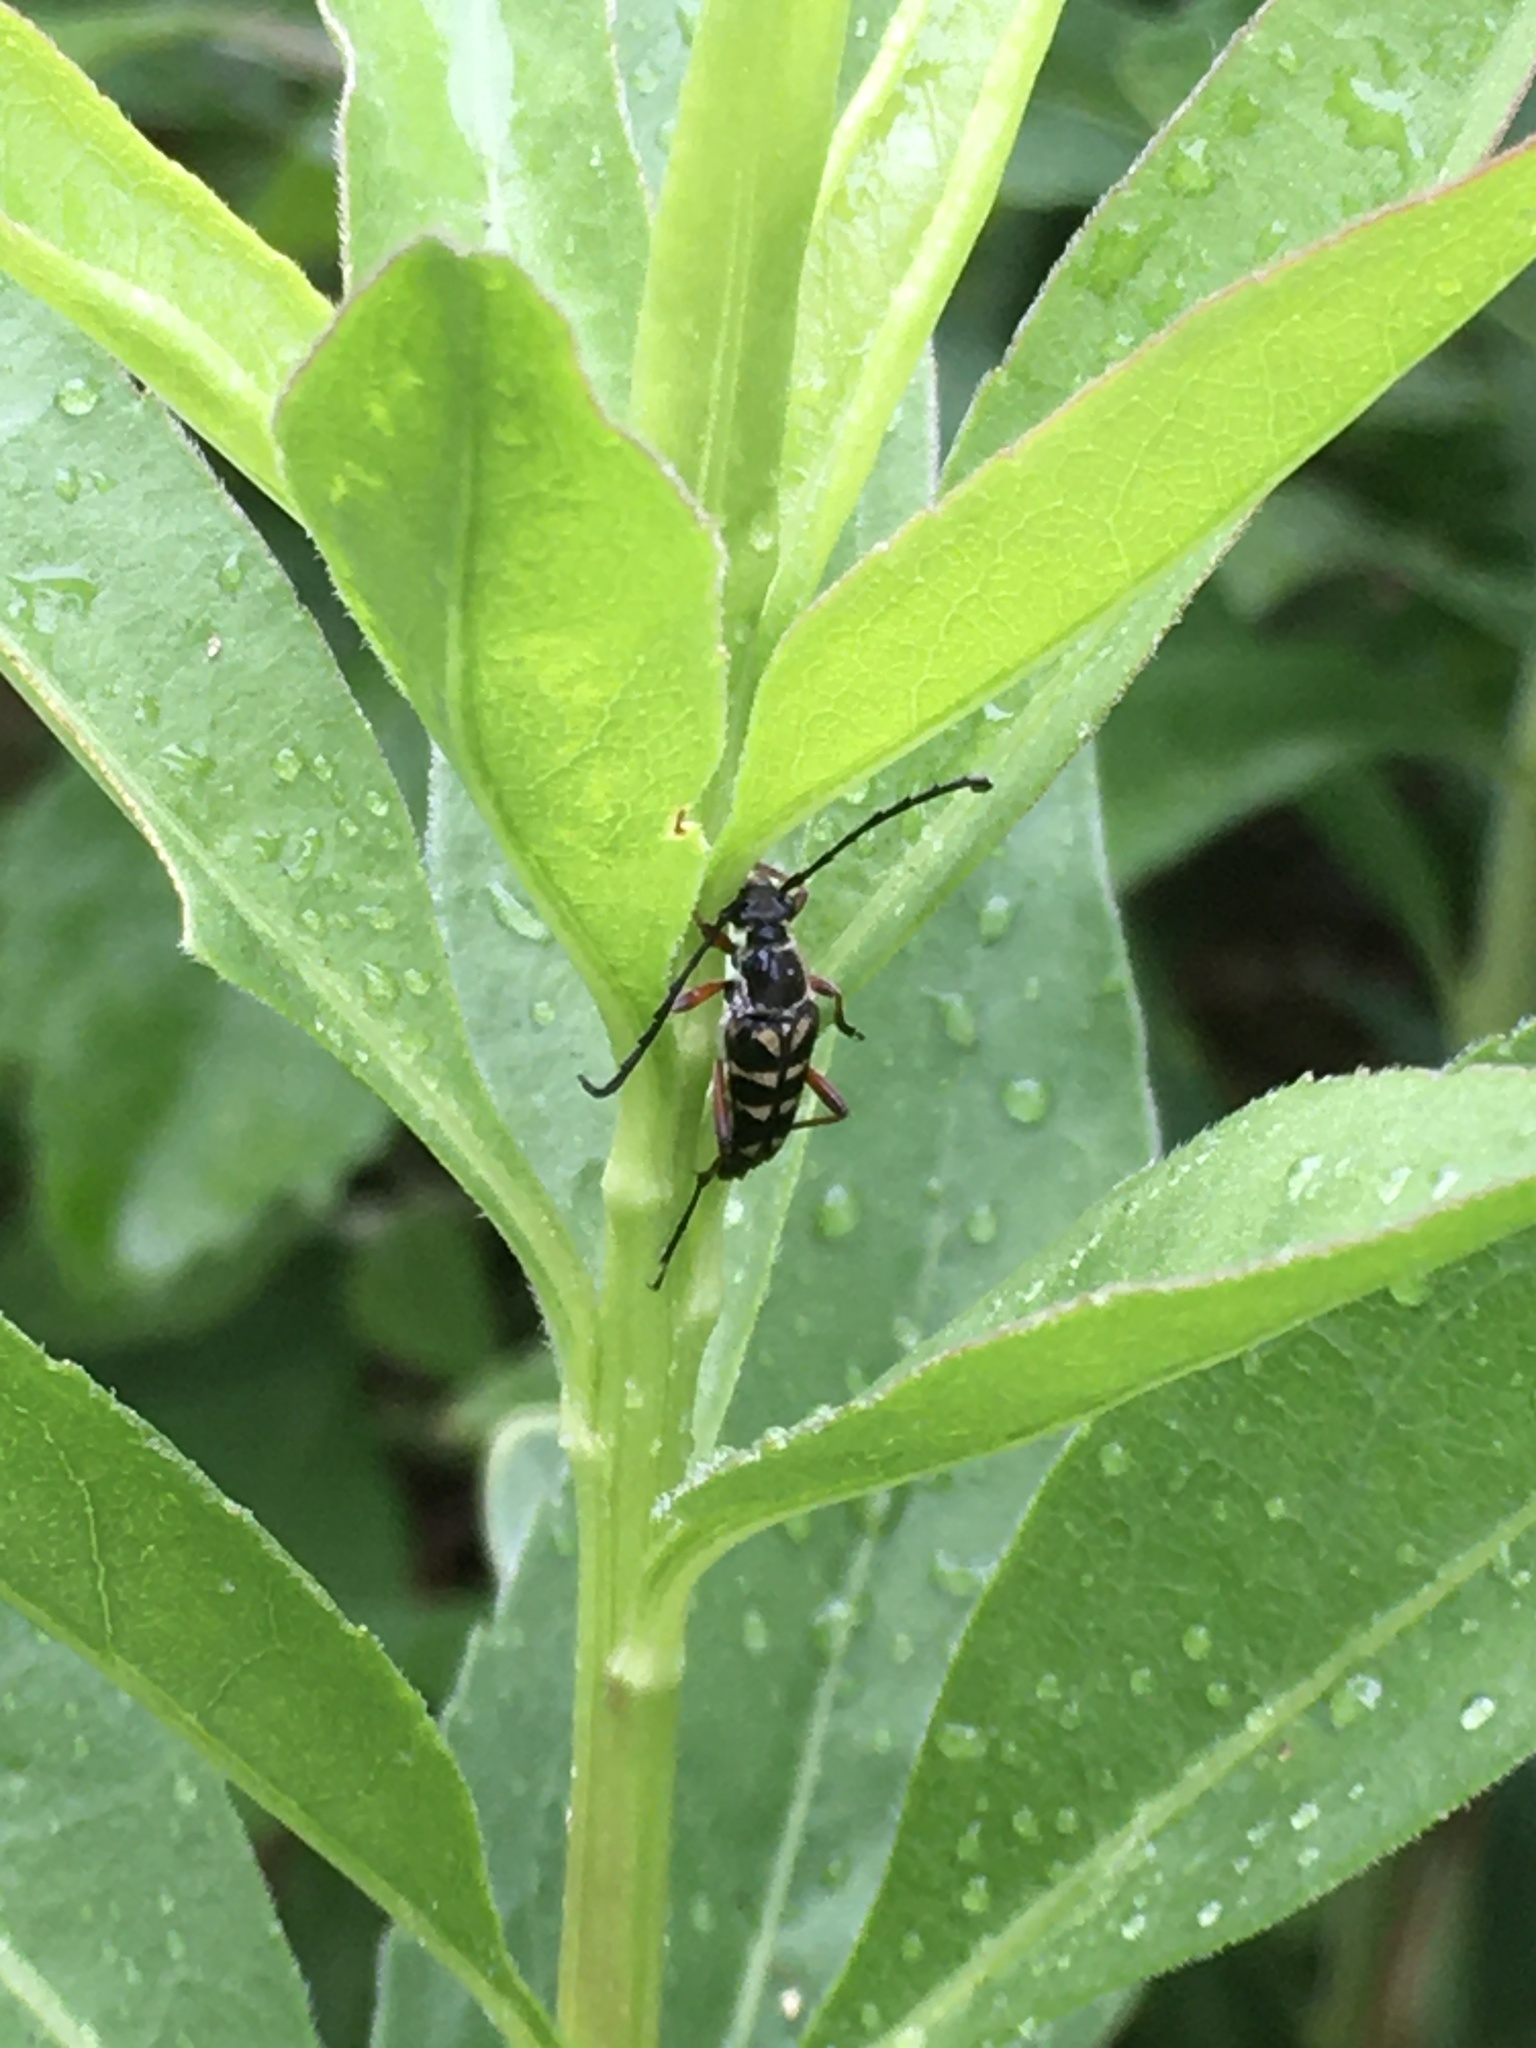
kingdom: Animalia
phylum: Arthropoda
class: Insecta
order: Coleoptera
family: Cerambycidae
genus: Typocerus
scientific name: Typocerus zebra
